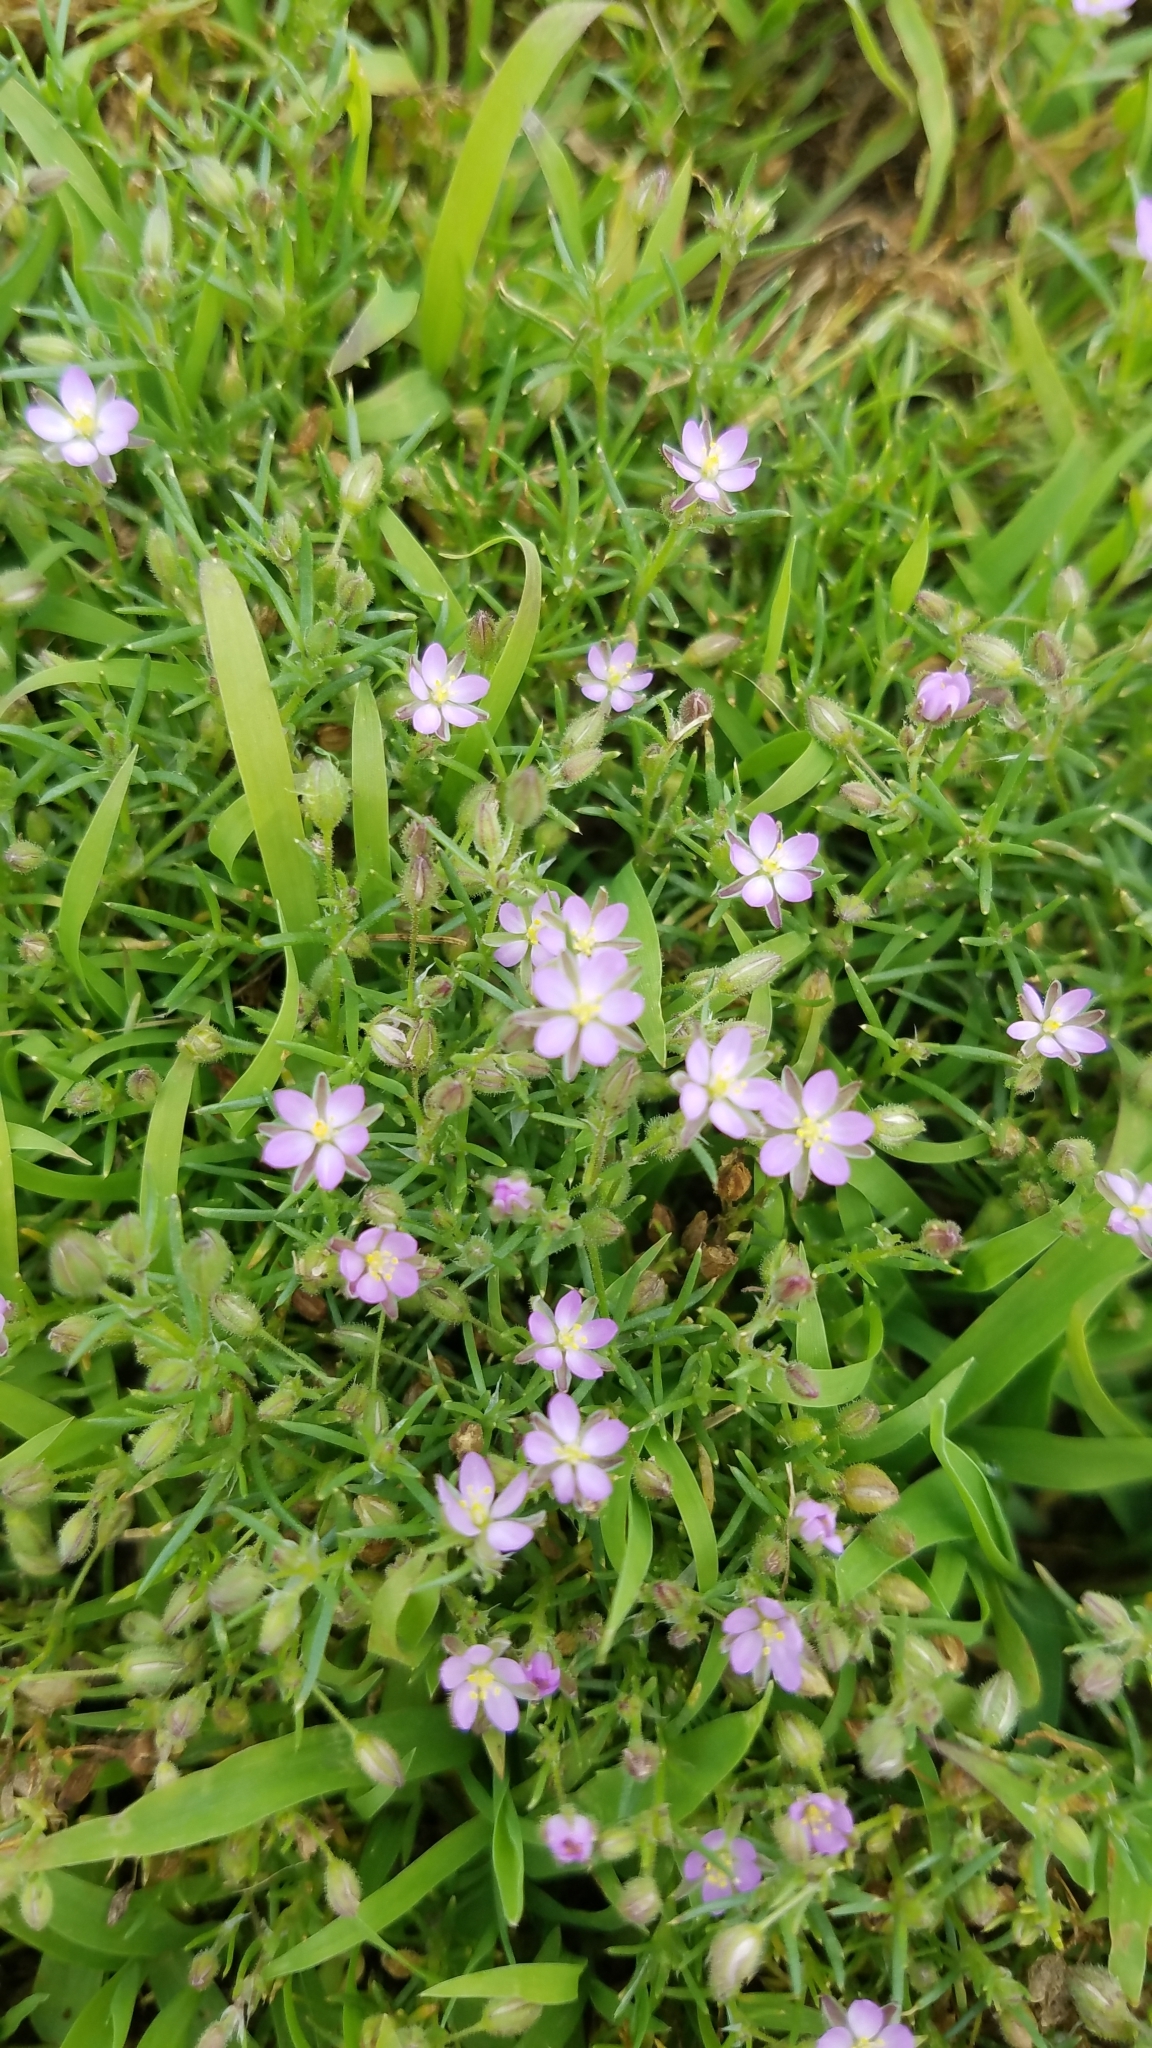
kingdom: Plantae
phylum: Tracheophyta
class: Magnoliopsida
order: Caryophyllales
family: Caryophyllaceae
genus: Spergularia
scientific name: Spergularia rubra
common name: Red sand-spurrey
